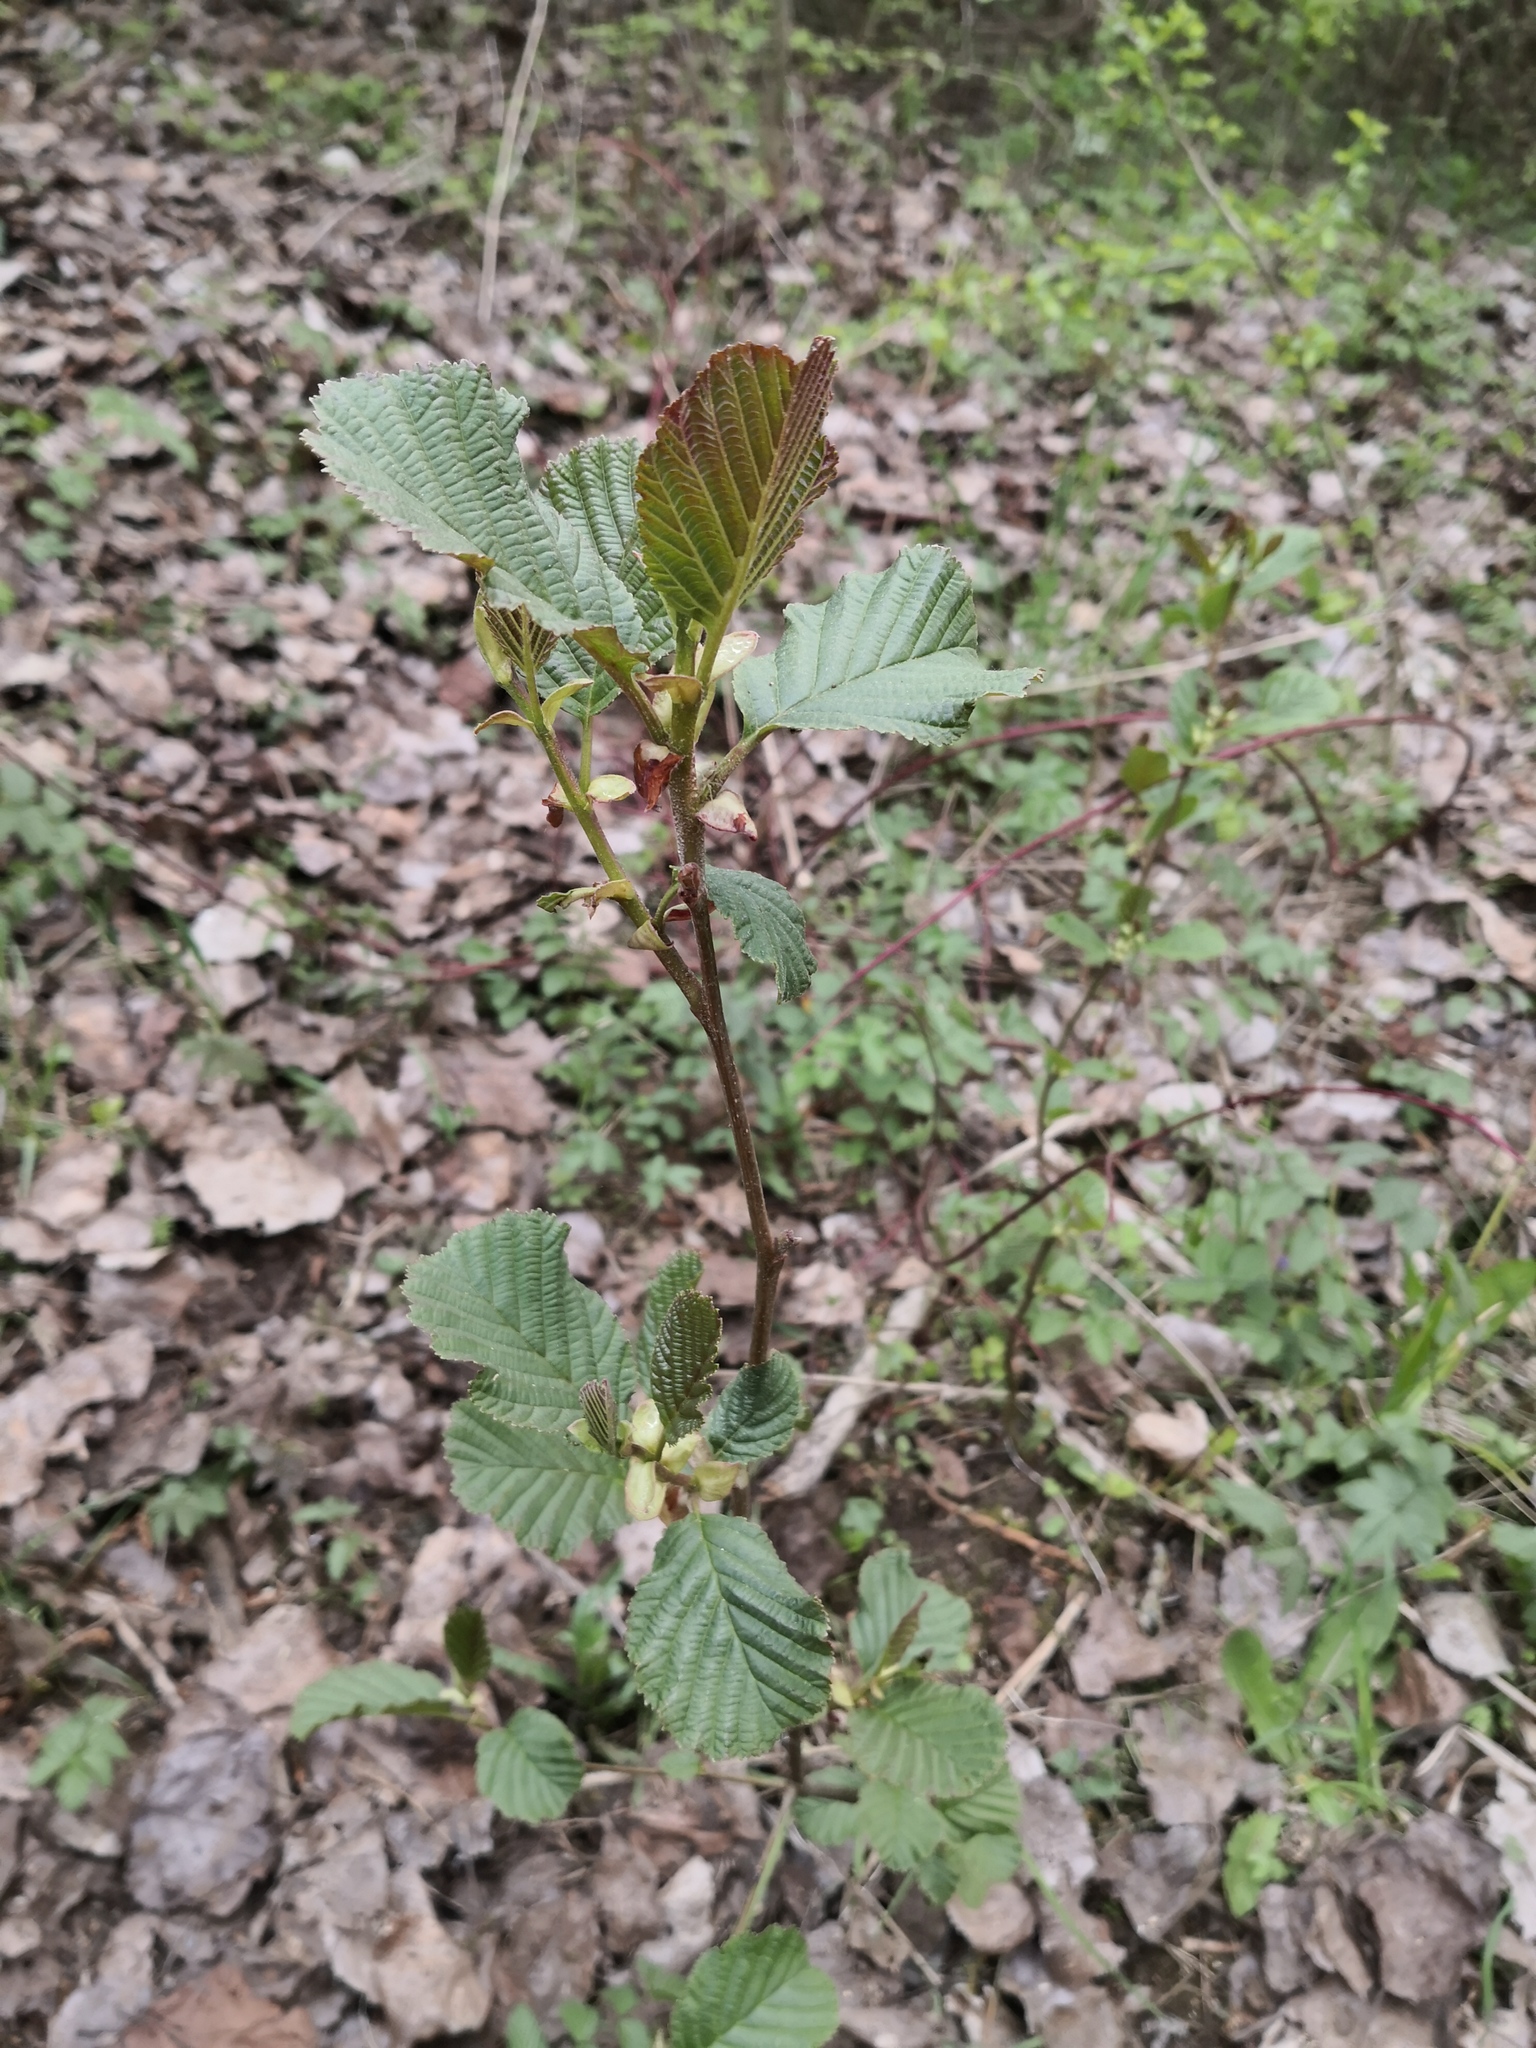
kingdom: Plantae
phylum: Tracheophyta
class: Magnoliopsida
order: Fagales
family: Betulaceae
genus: Alnus
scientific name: Alnus glutinosa
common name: Black alder
